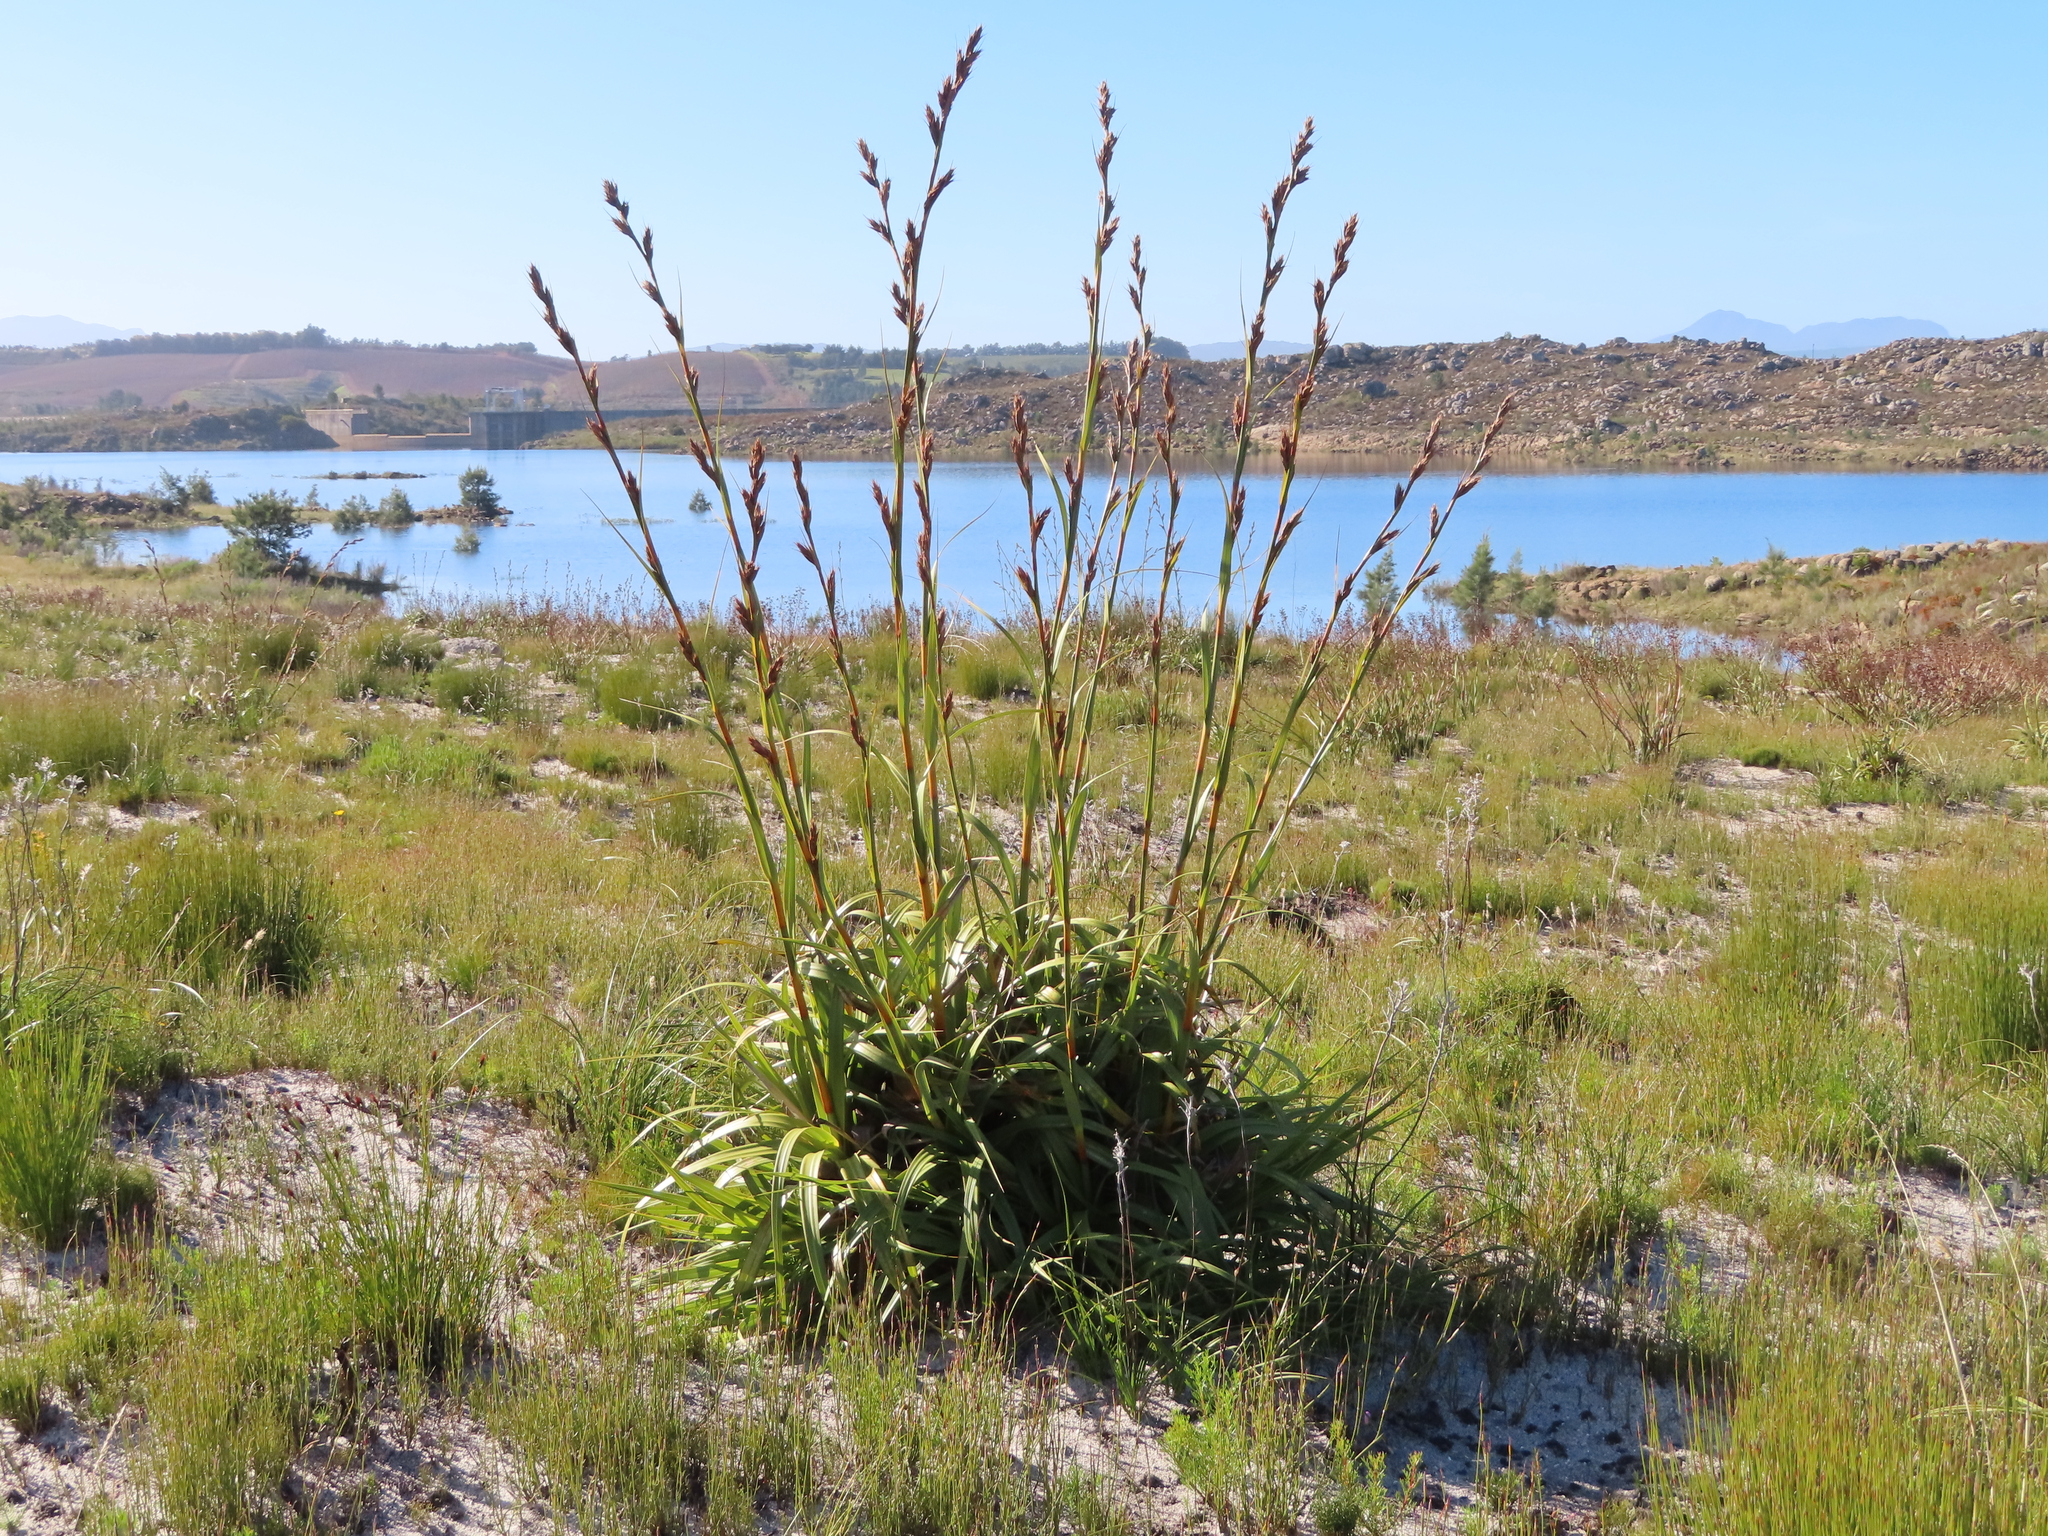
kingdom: Plantae
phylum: Tracheophyta
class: Liliopsida
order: Poales
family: Cyperaceae
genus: Tetraria
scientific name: Tetraria thermalis
